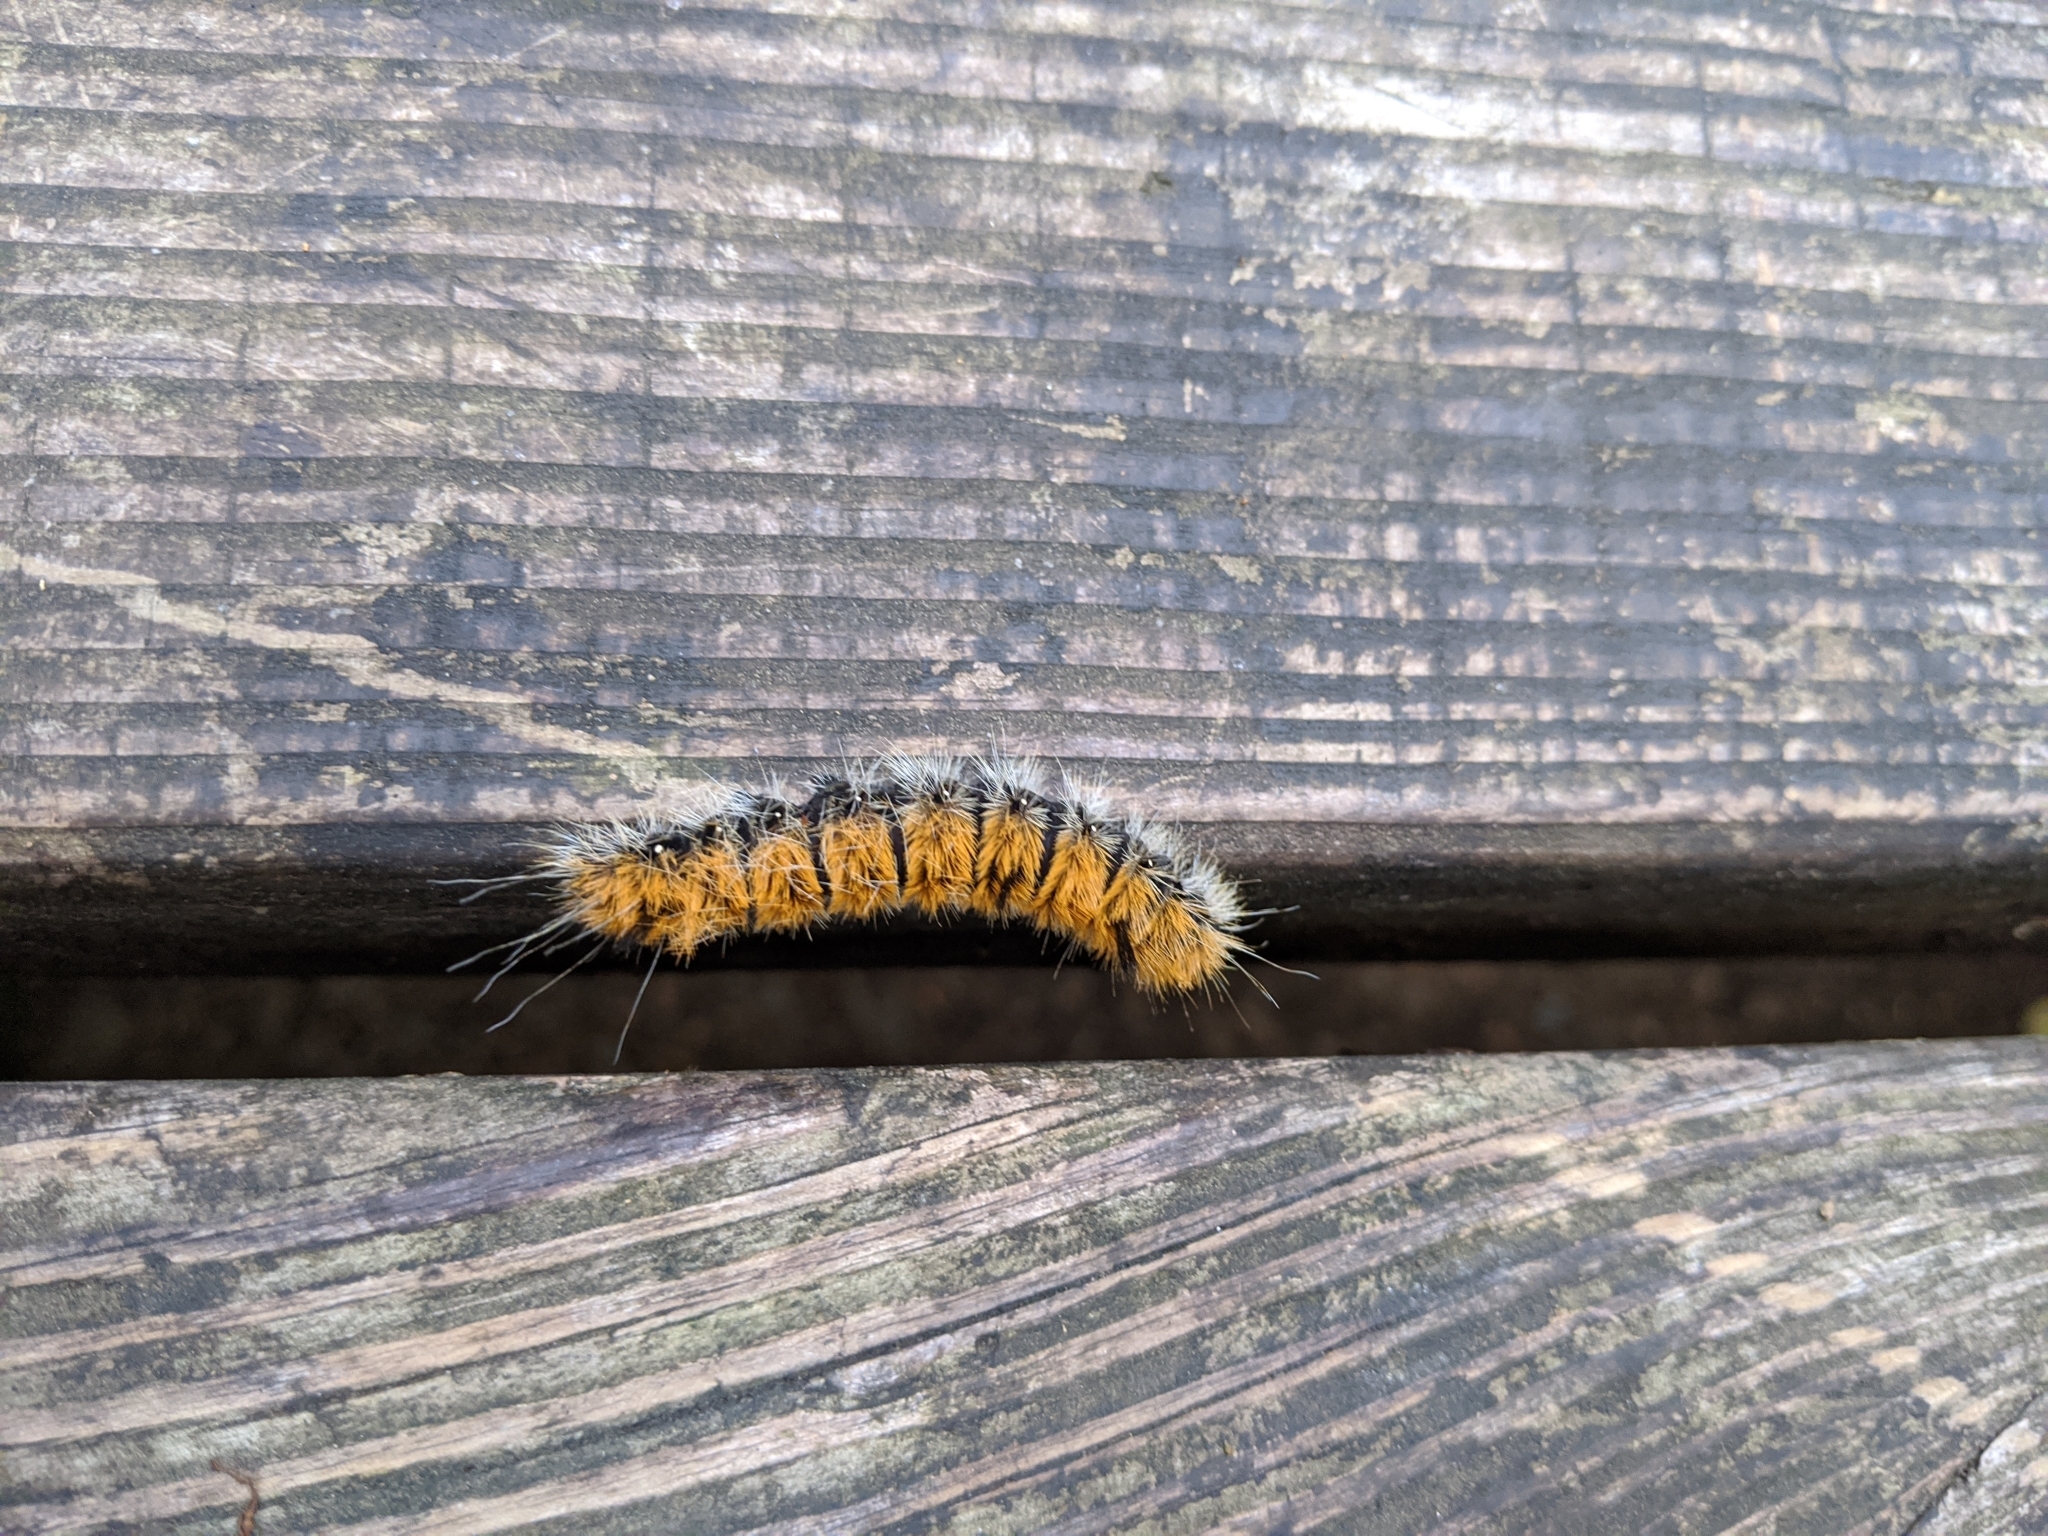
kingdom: Animalia
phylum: Arthropoda
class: Insecta
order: Lepidoptera
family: Noctuidae
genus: Acronicta
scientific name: Acronicta insita
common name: Large gray dagger
